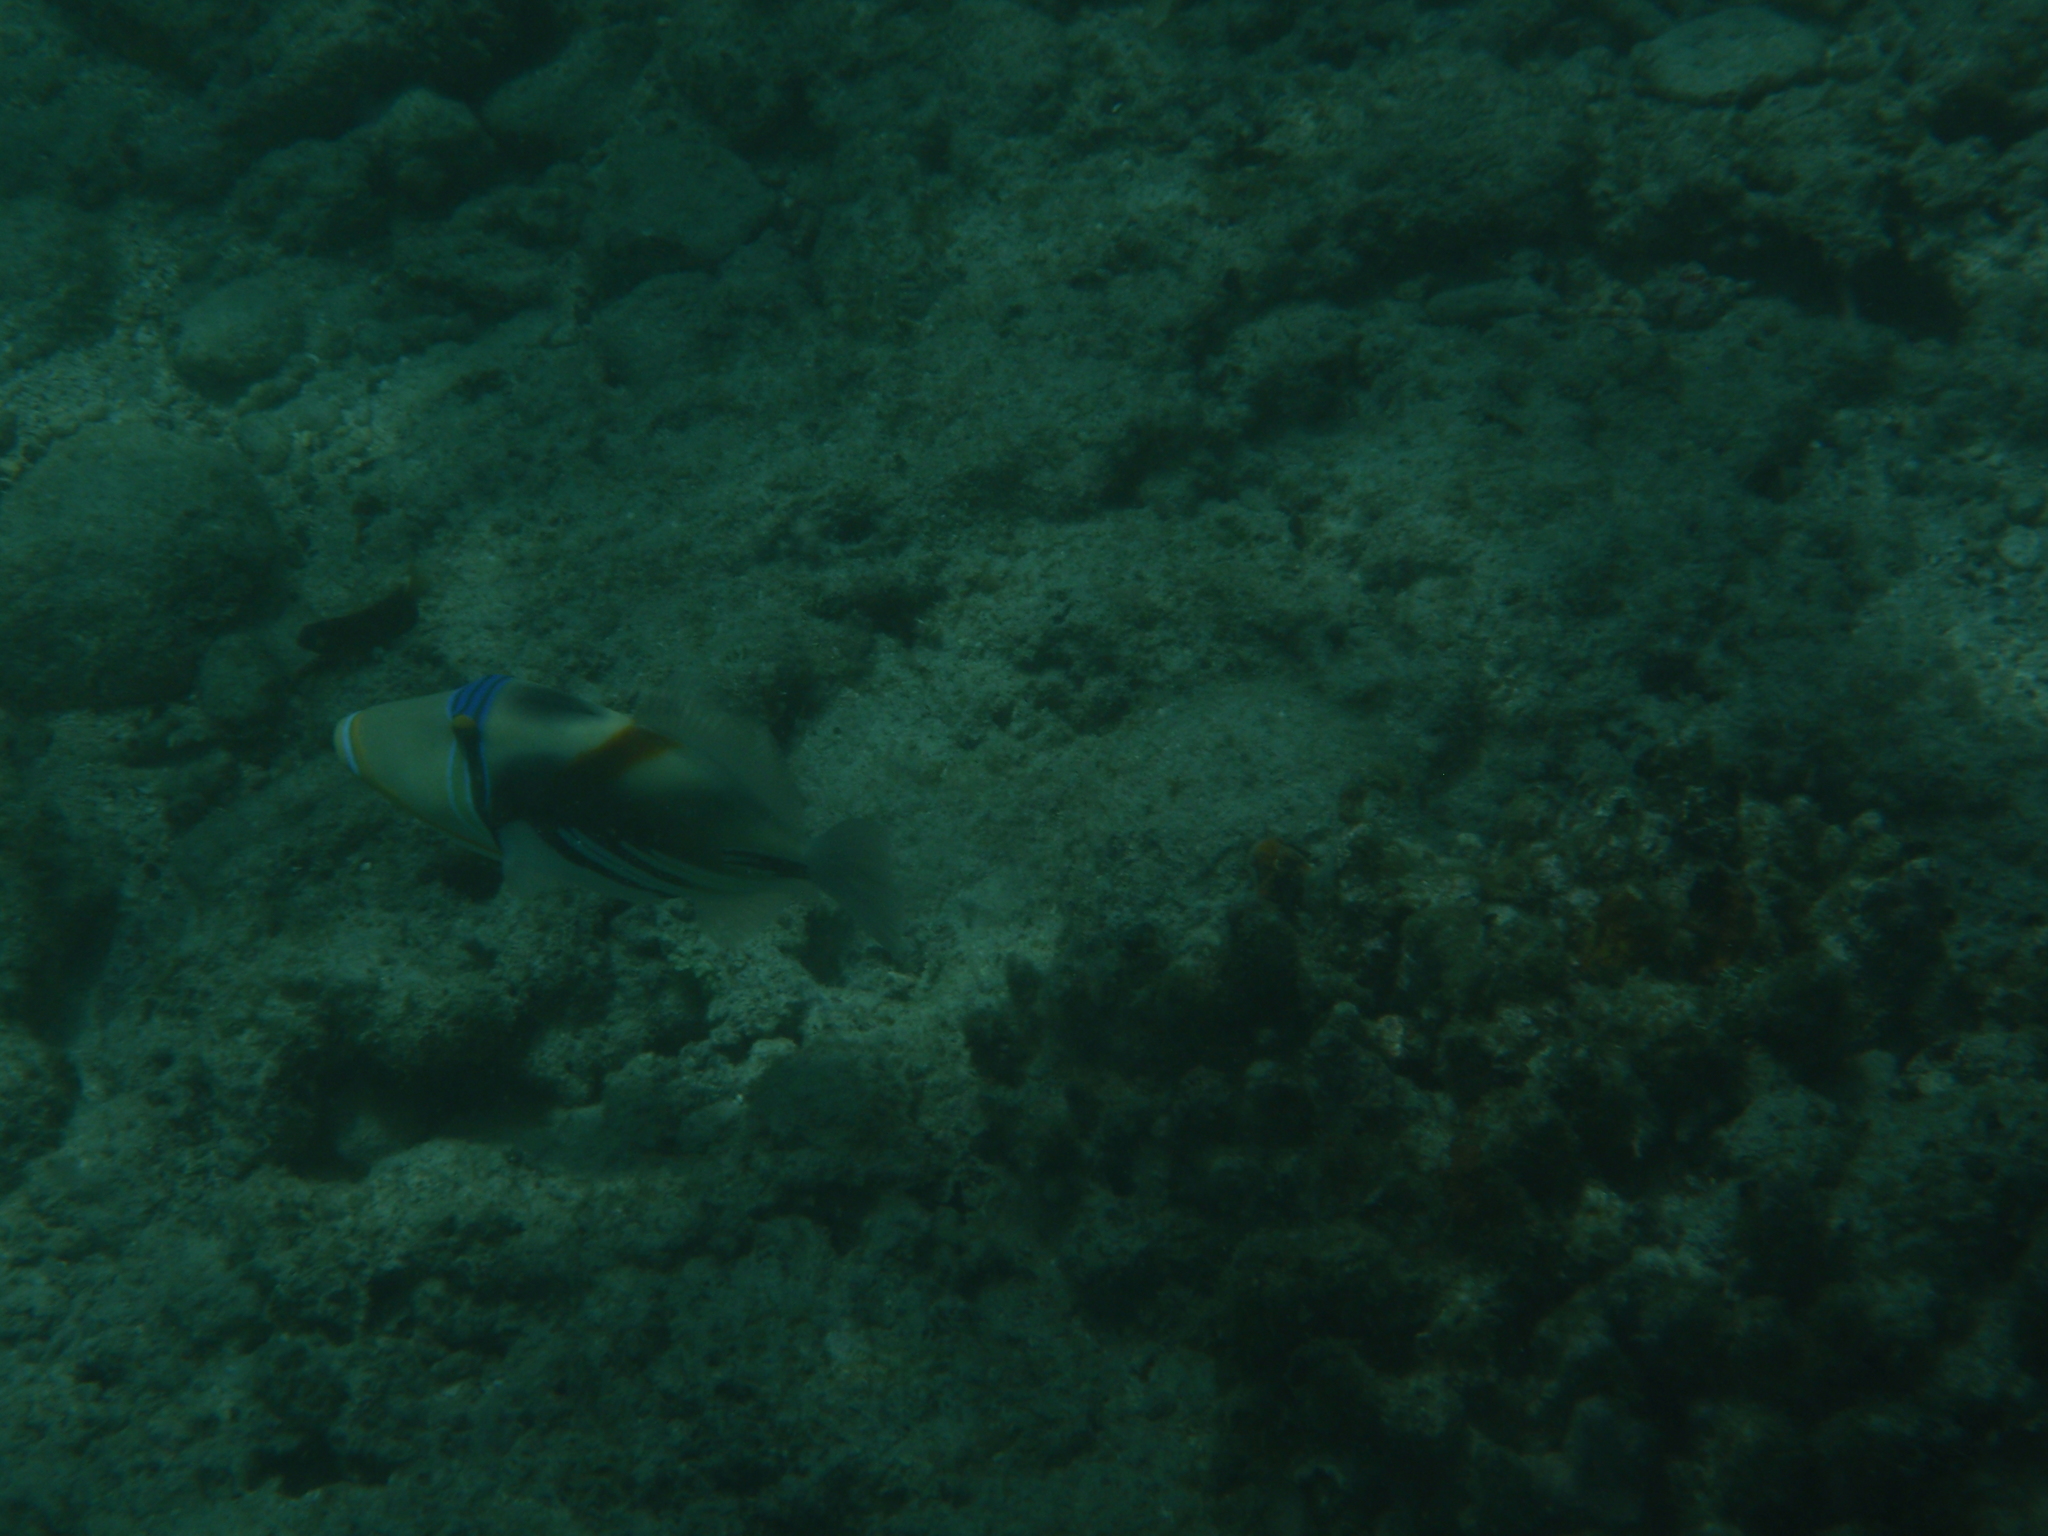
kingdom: Animalia
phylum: Chordata
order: Tetraodontiformes
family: Balistidae
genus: Rhinecanthus
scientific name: Rhinecanthus aculeatus
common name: White-banded triggerfish
